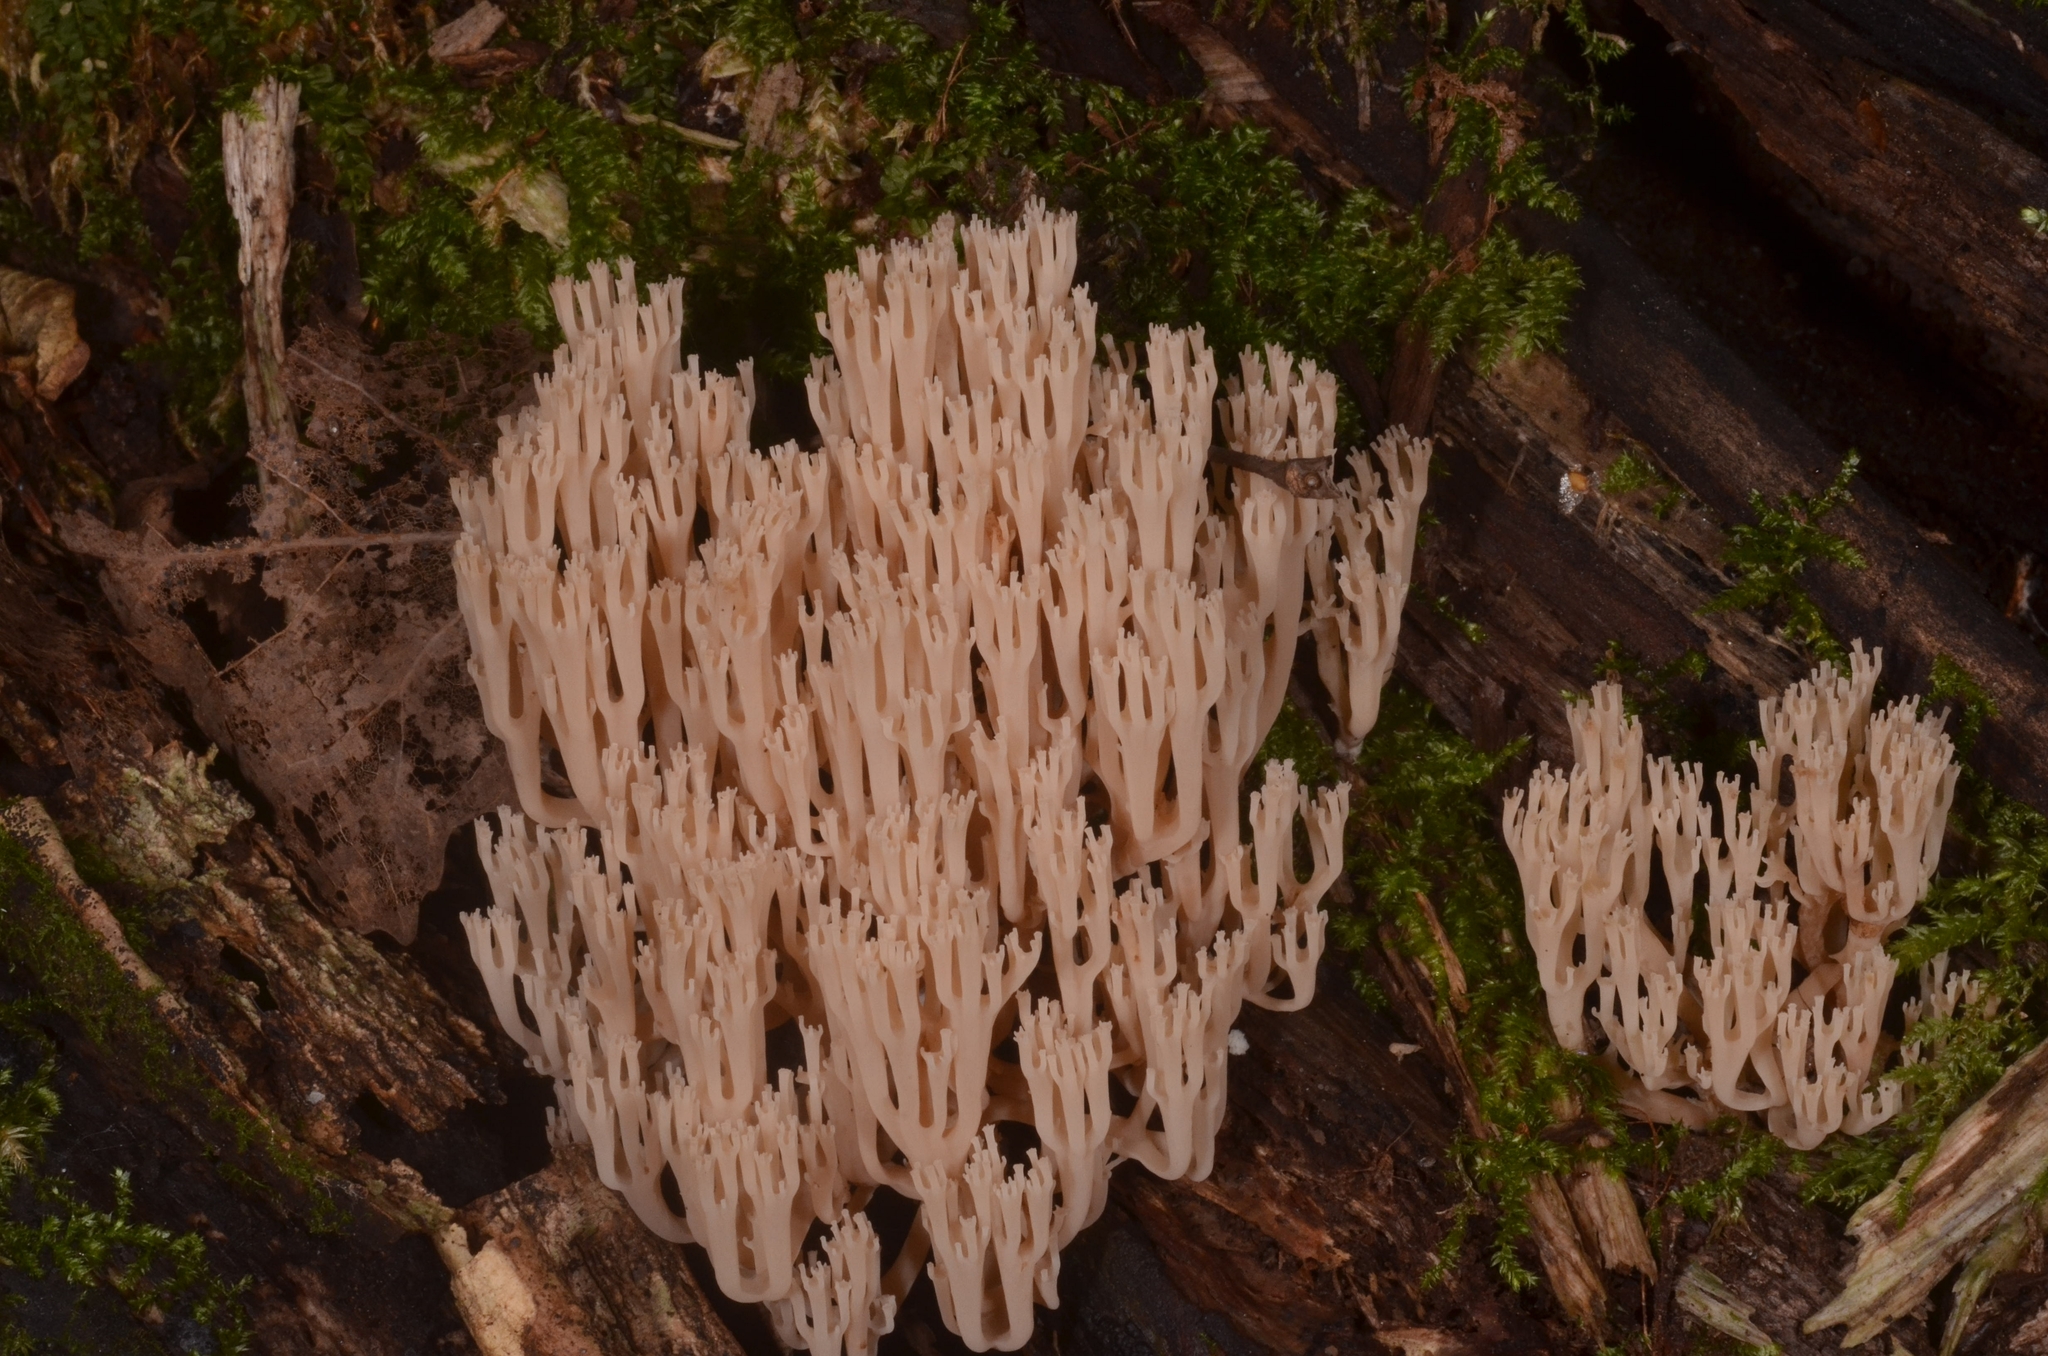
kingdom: Fungi
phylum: Basidiomycota
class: Agaricomycetes
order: Russulales
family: Auriscalpiaceae
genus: Artomyces
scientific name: Artomyces pyxidatus
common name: Crown-tipped coral fungus
